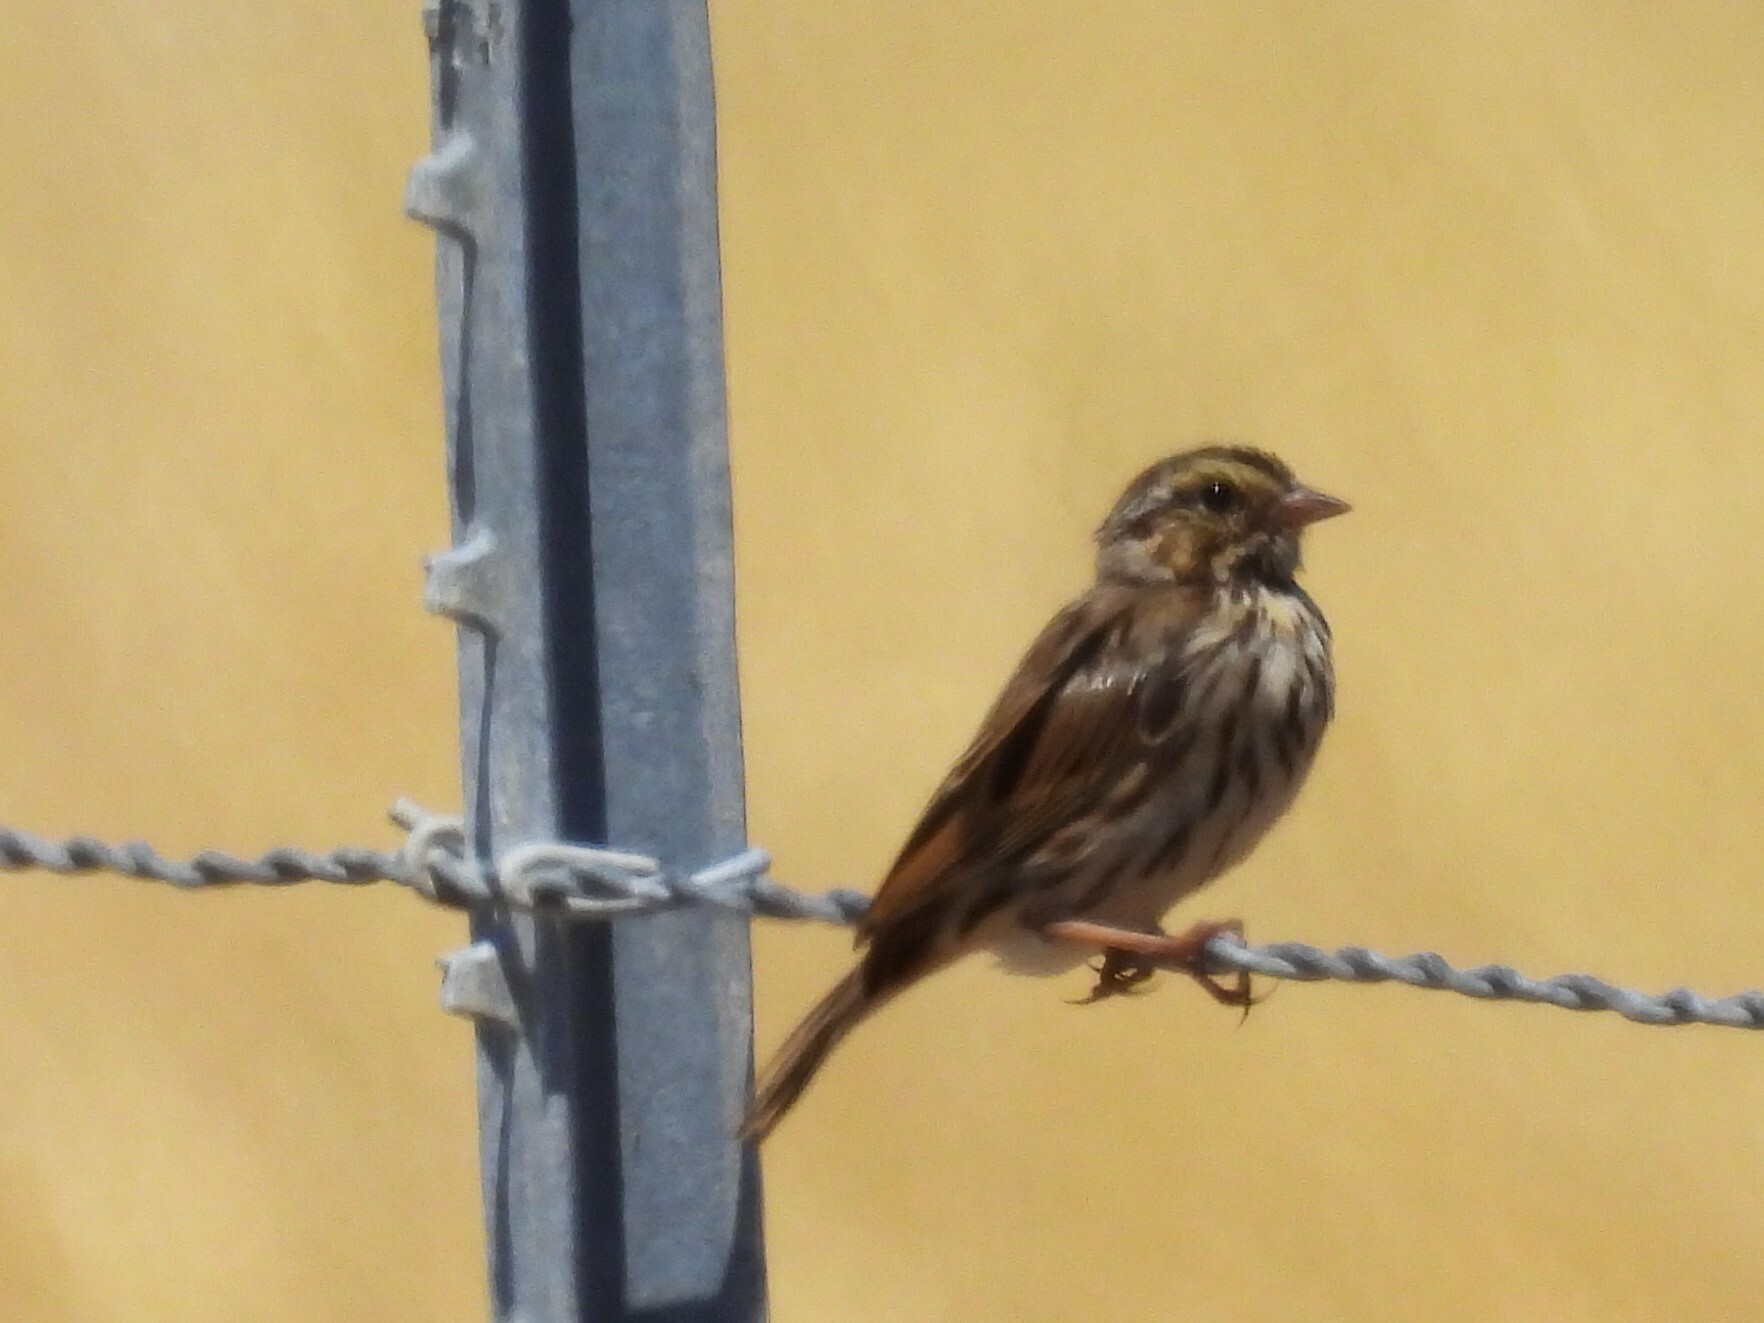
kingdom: Animalia
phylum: Chordata
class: Aves
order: Passeriformes
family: Passerellidae
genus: Passerculus
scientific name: Passerculus sandwichensis
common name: Savannah sparrow
